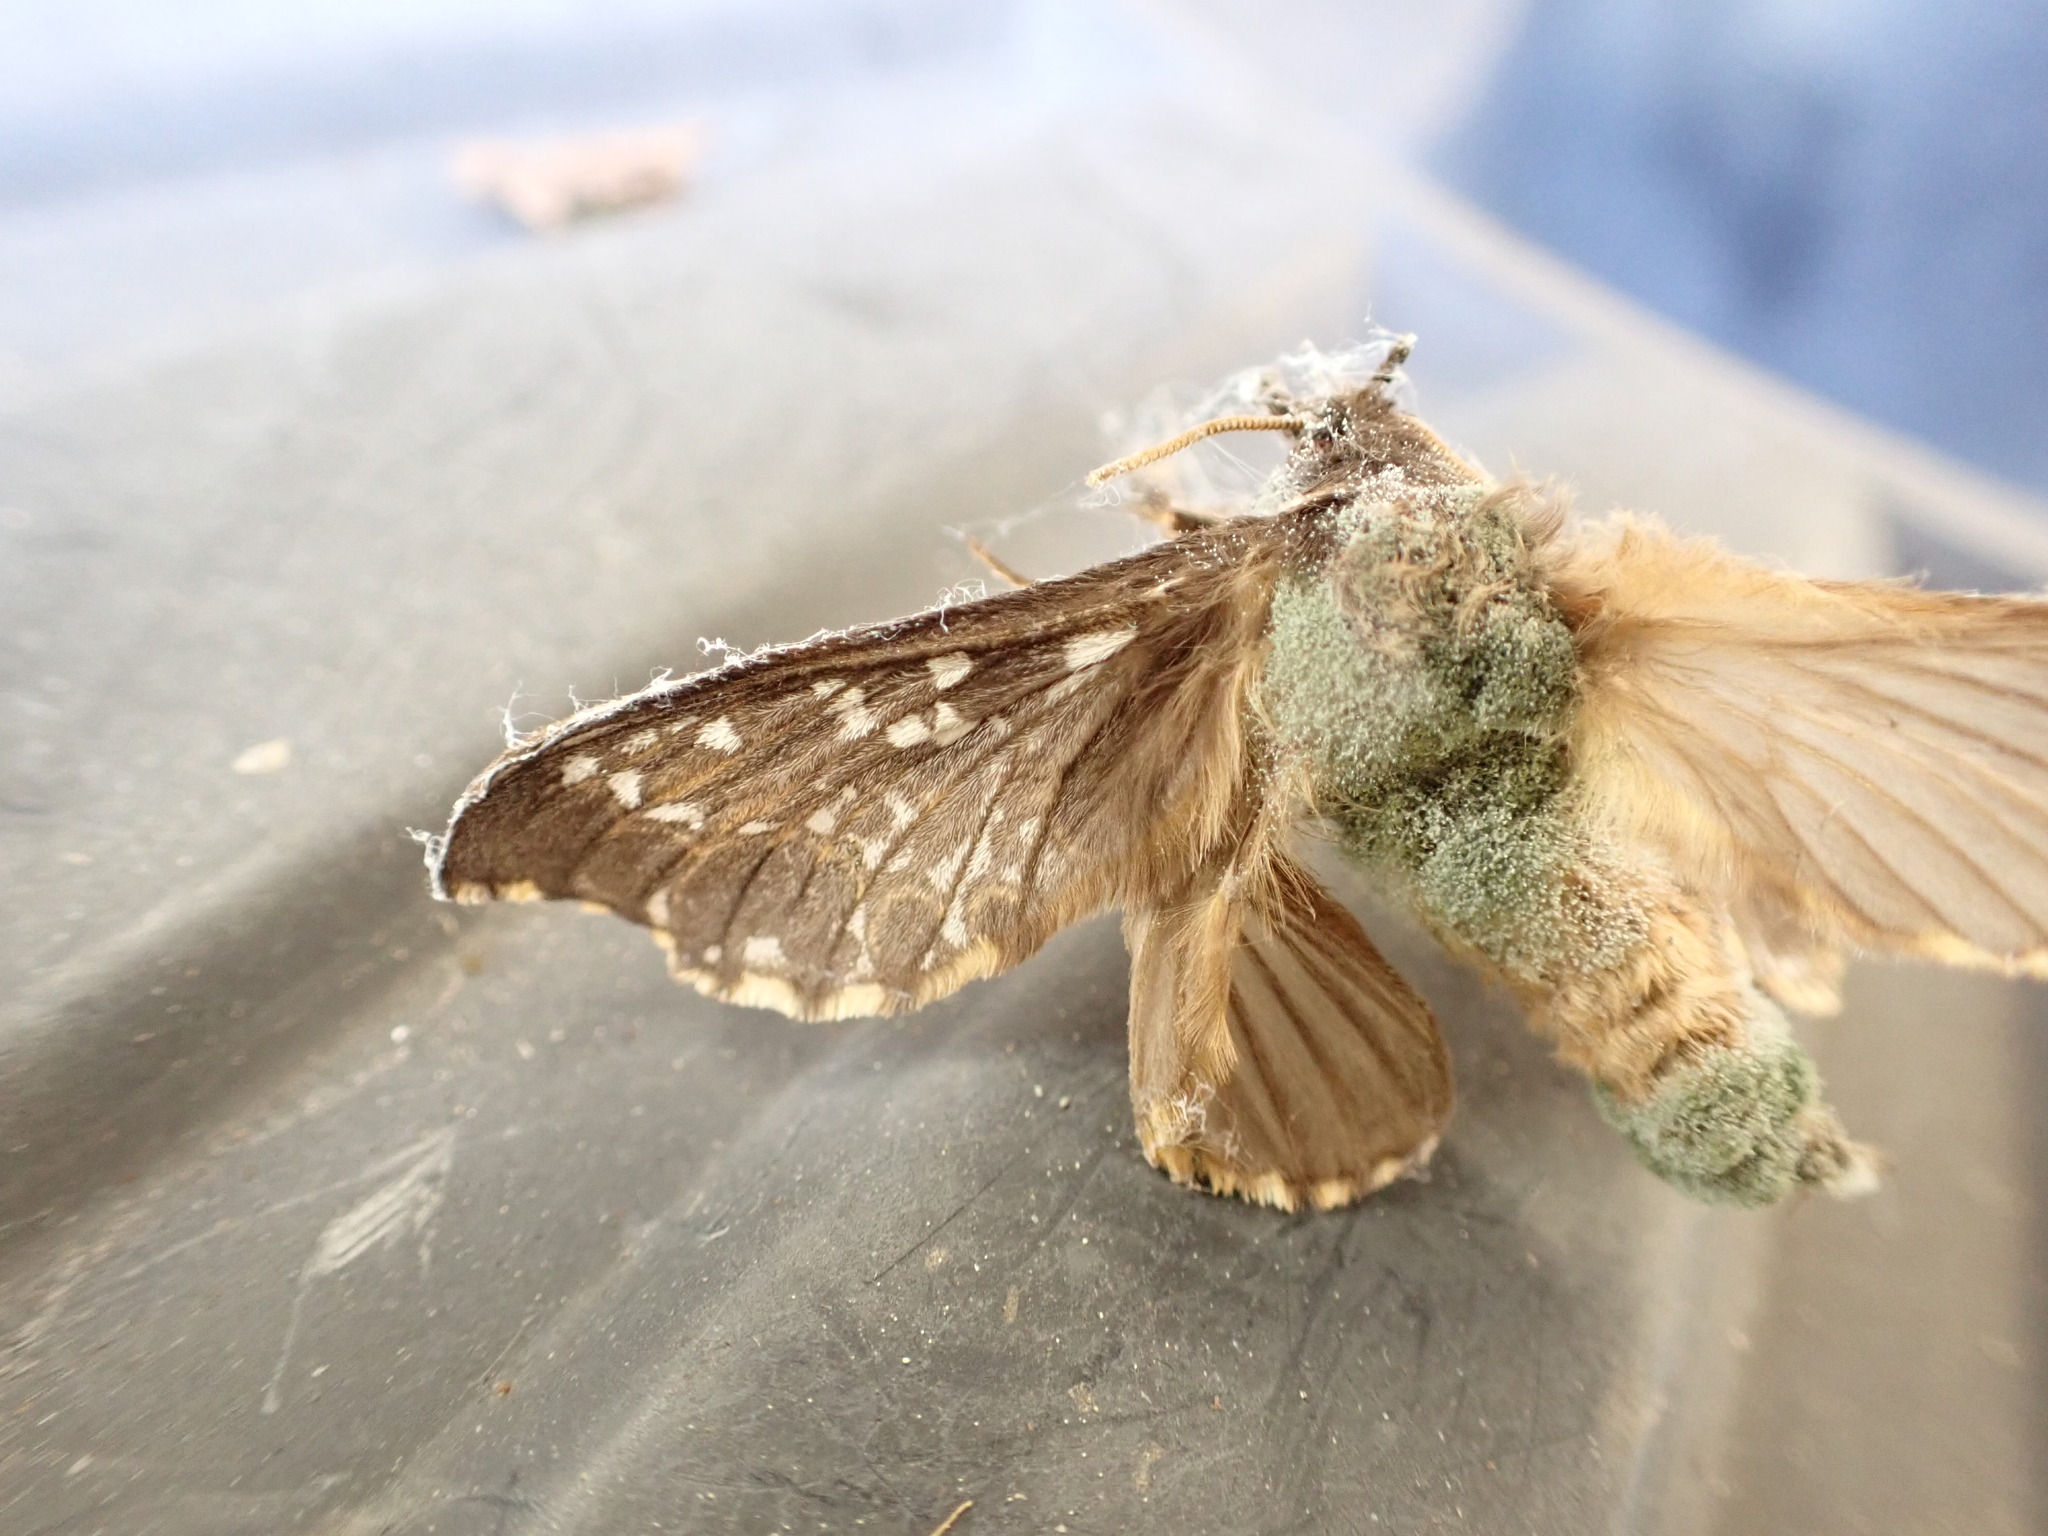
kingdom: Animalia
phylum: Arthropoda
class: Insecta
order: Lepidoptera
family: Hepialidae
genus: Cladoxycanus
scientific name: Cladoxycanus minos
